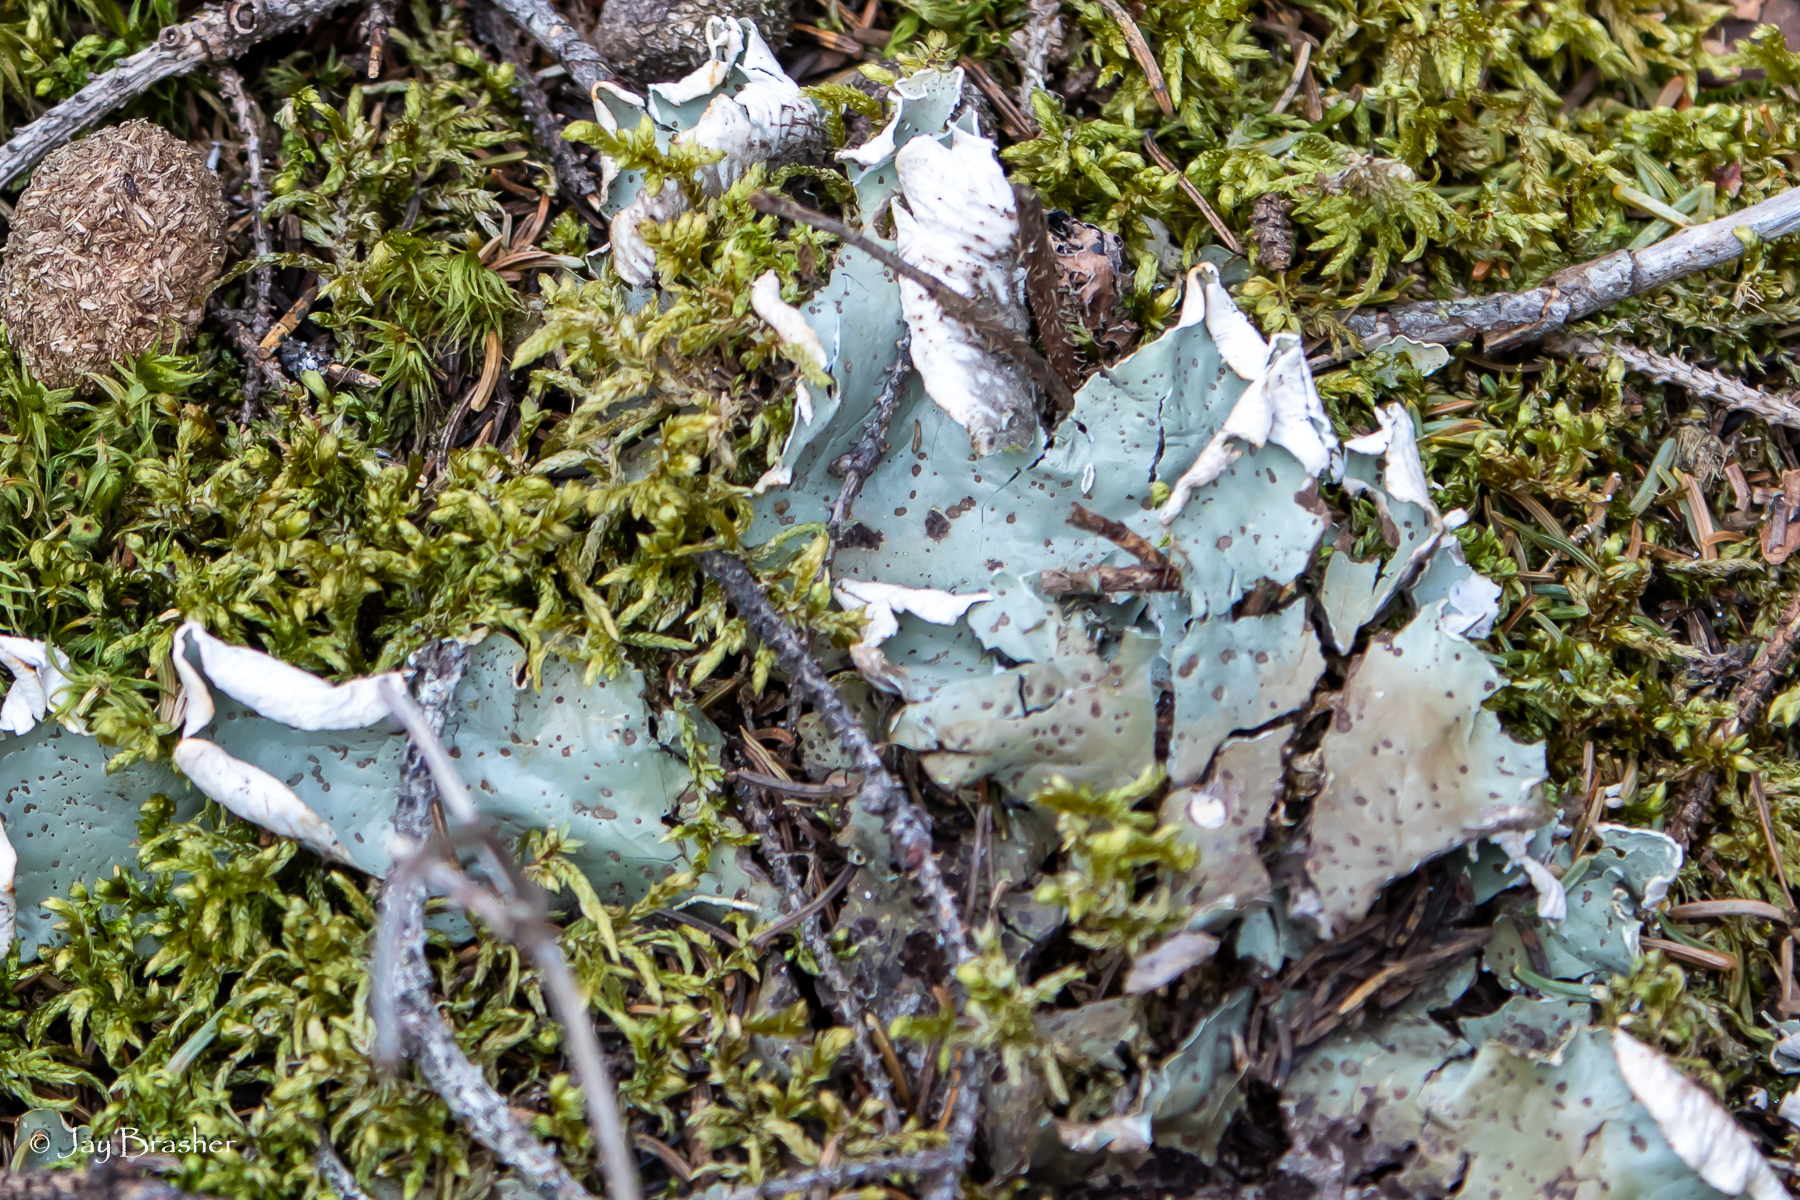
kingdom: Fungi
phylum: Ascomycota
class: Lecanoromycetes
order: Peltigerales
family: Peltigeraceae
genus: Peltigera
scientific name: Peltigera aphthosa
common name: Common freckle pelt lichen
